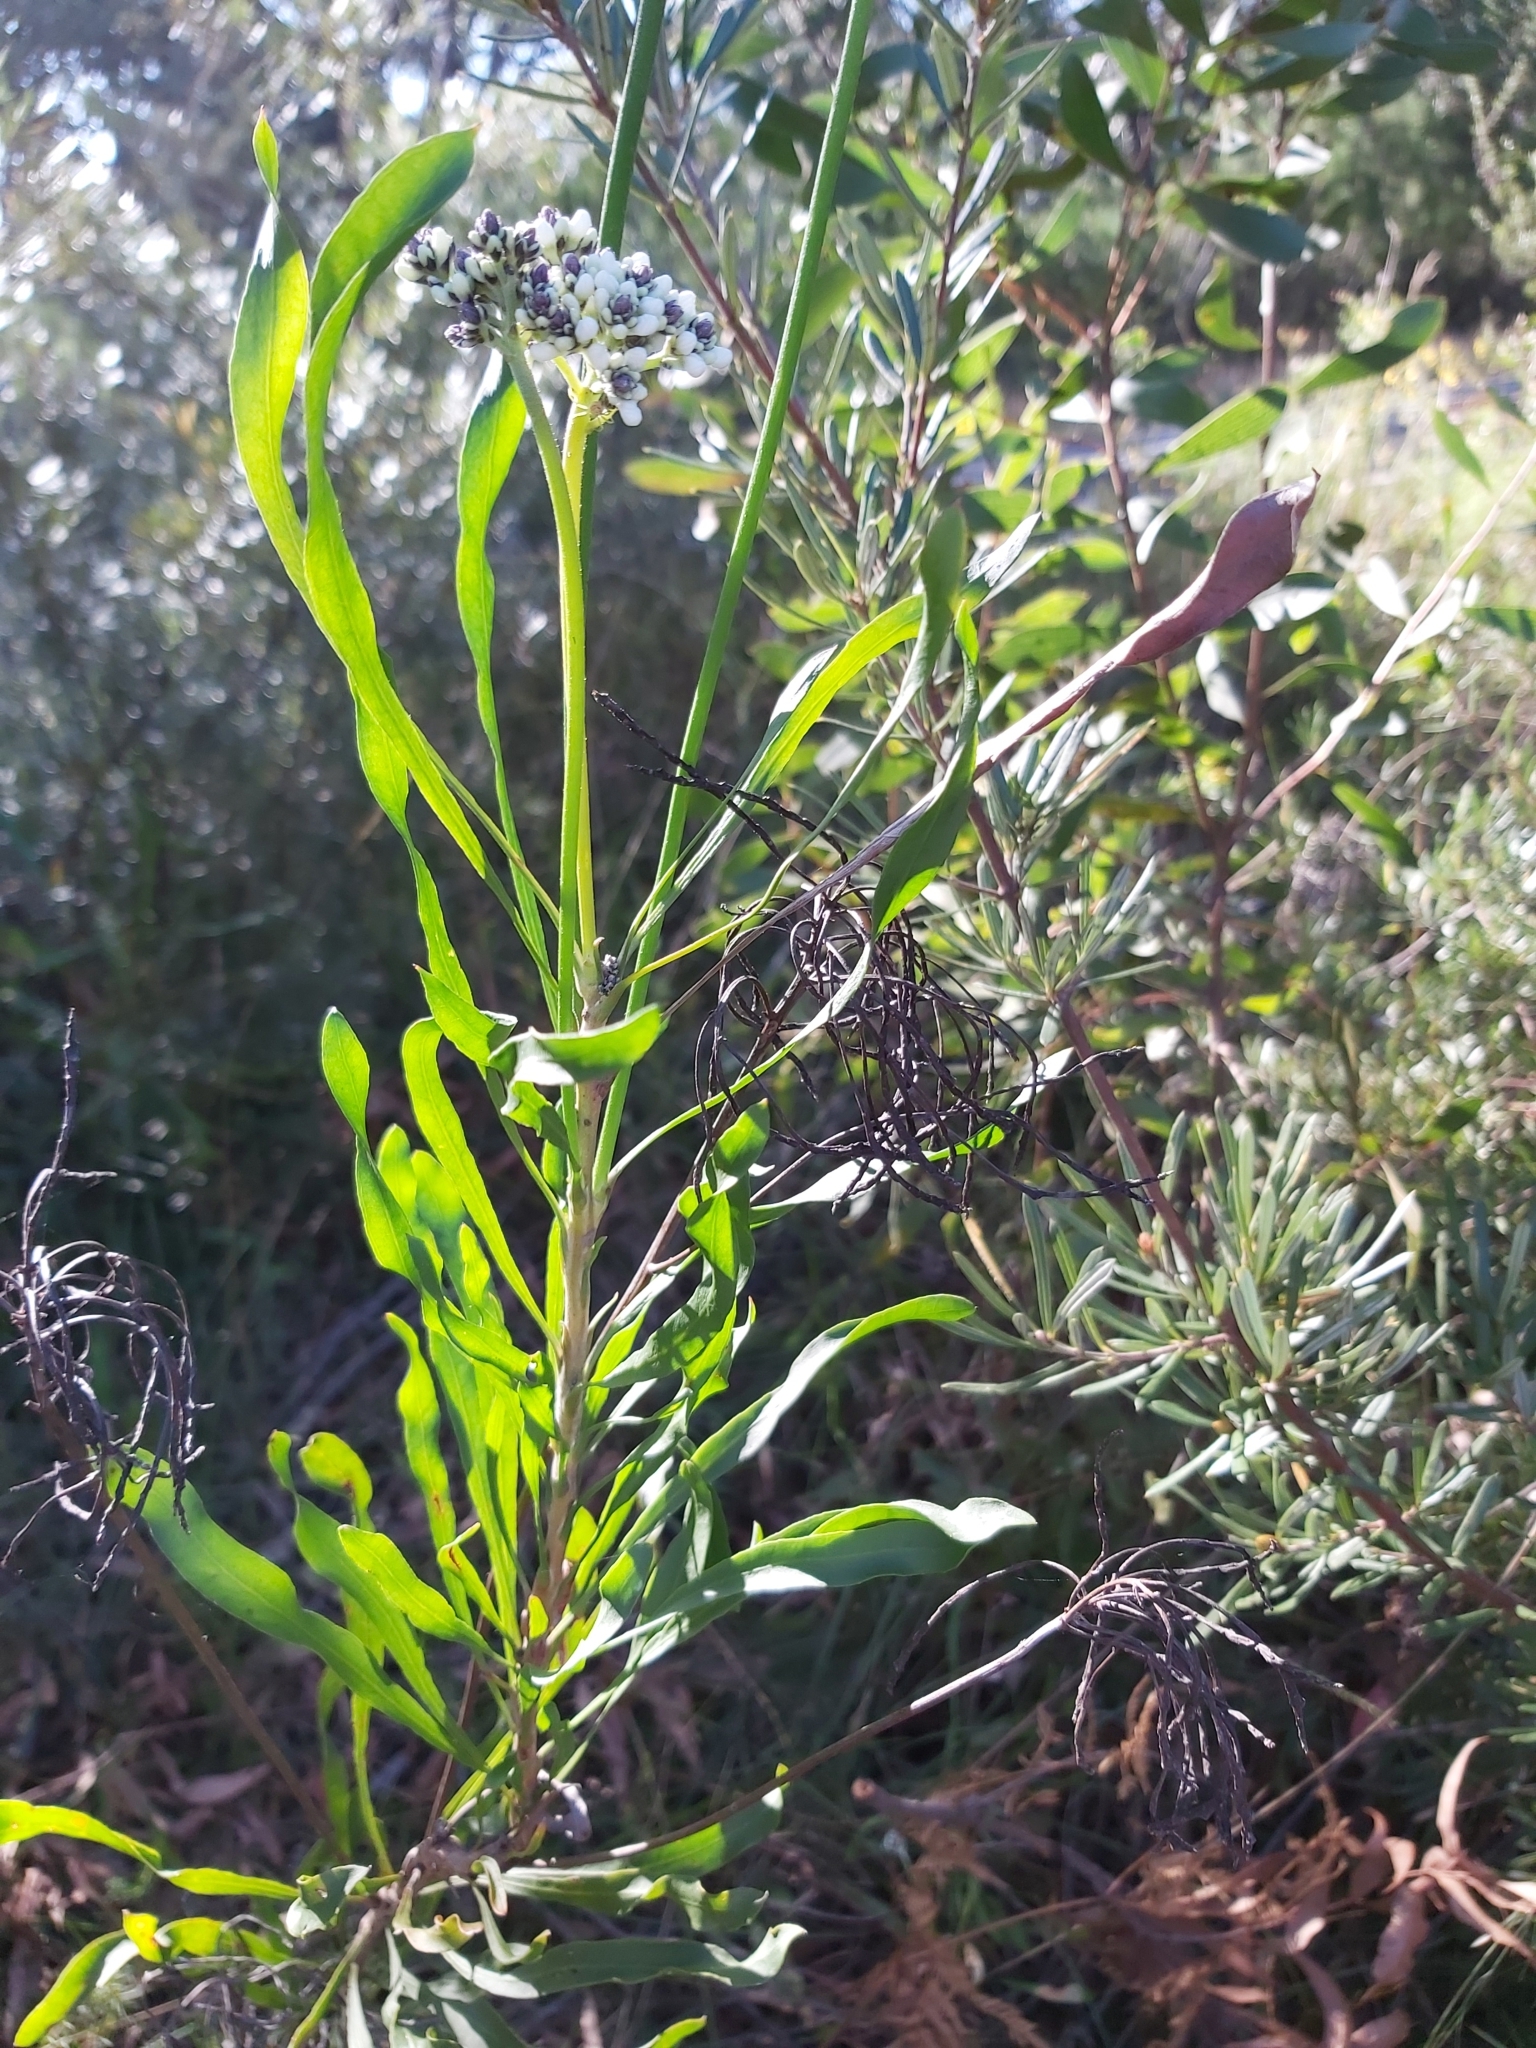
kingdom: Plantae
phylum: Tracheophyta
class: Magnoliopsida
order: Proteales
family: Proteaceae
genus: Conospermum
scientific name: Conospermum longifolium
